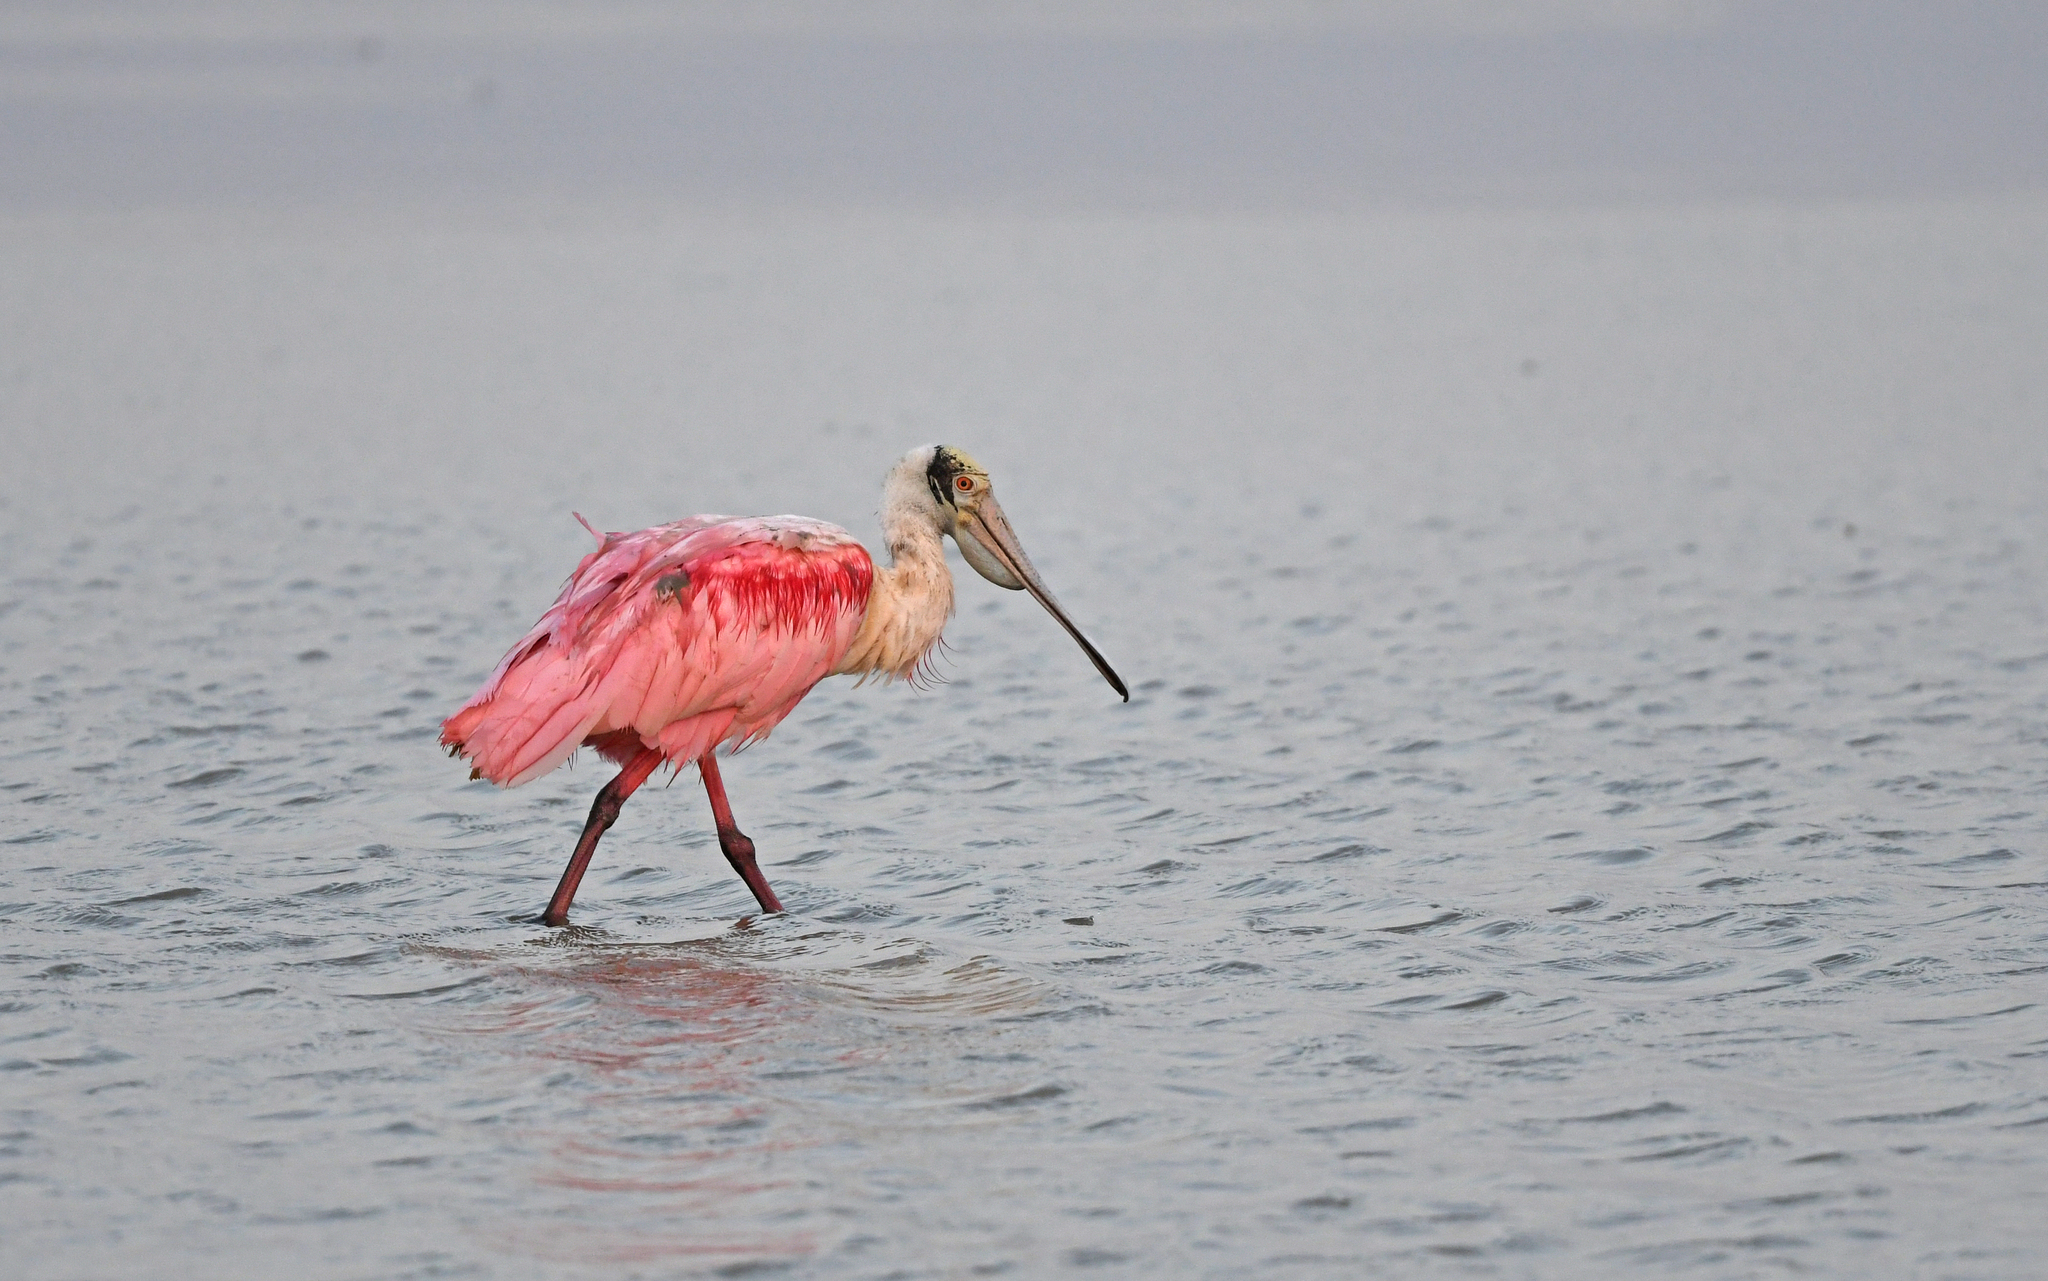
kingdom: Animalia
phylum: Chordata
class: Aves
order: Pelecaniformes
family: Threskiornithidae
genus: Platalea
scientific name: Platalea ajaja
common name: Roseate spoonbill
